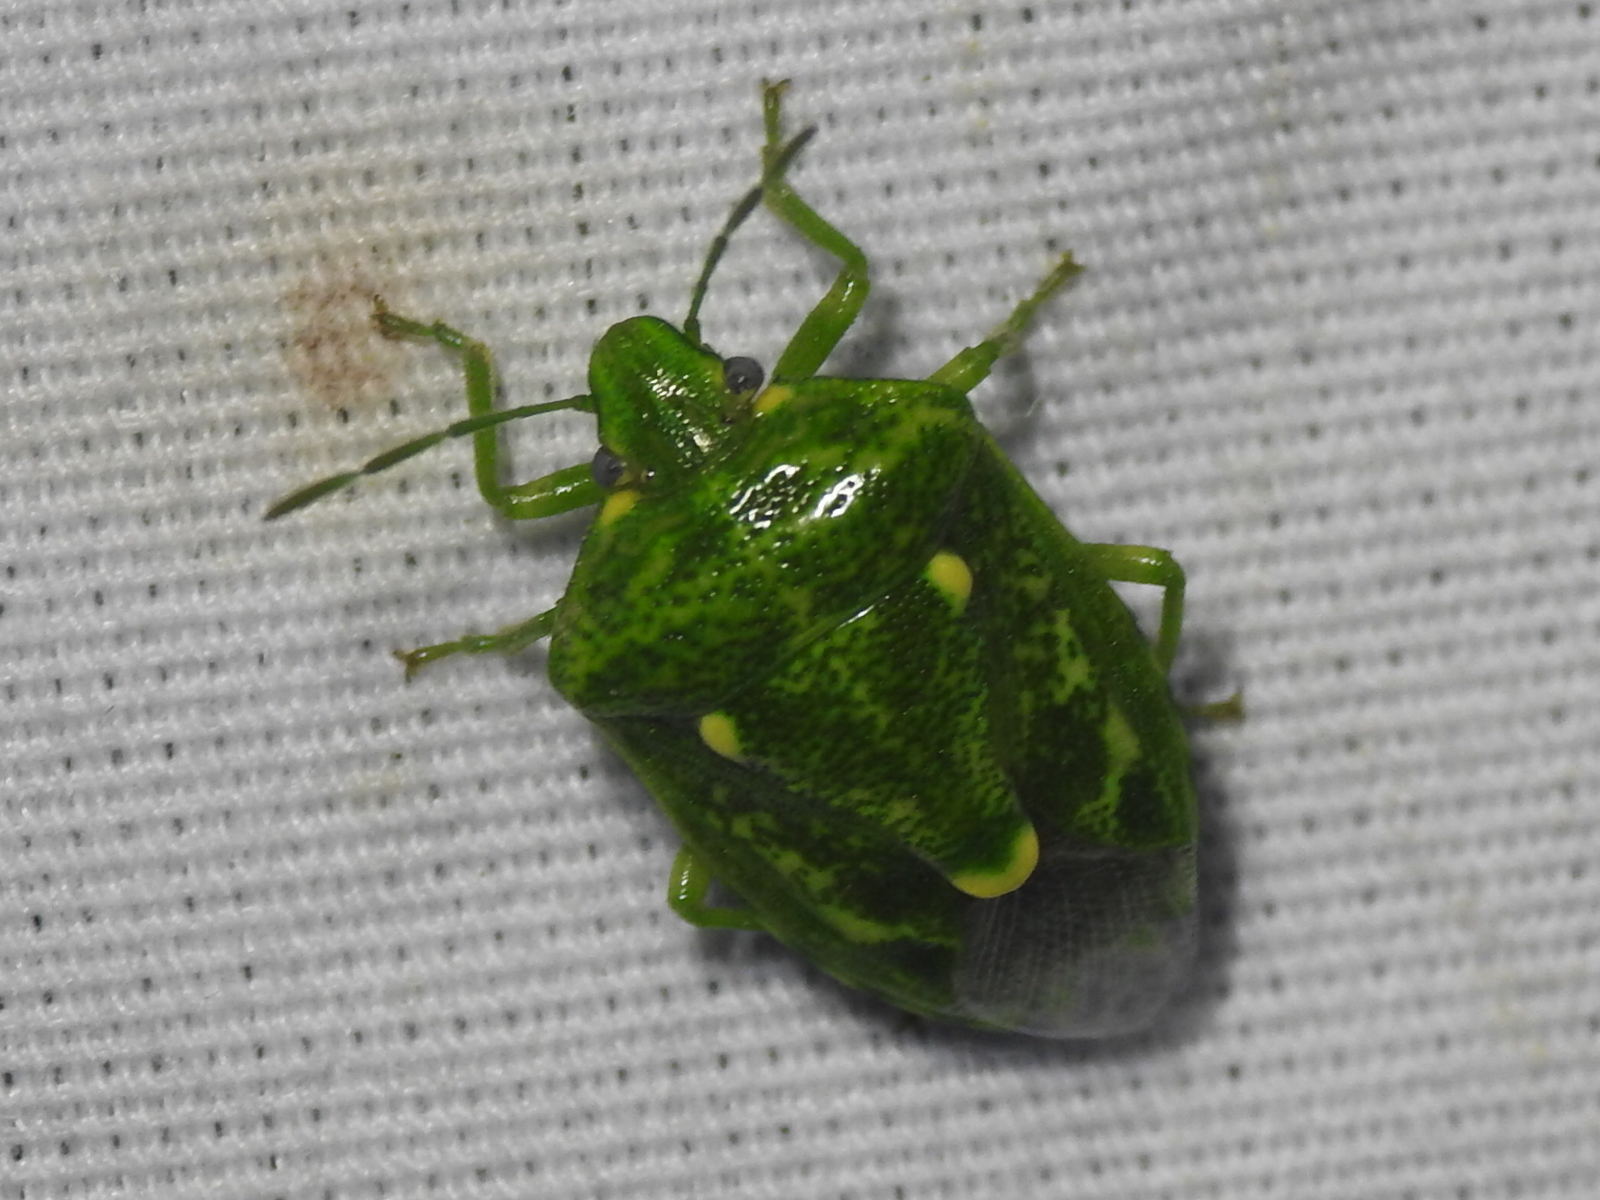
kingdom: Animalia
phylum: Arthropoda
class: Insecta
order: Hemiptera
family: Pentatomidae
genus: Banasa
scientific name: Banasa euchlora
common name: Cedar berry bug
